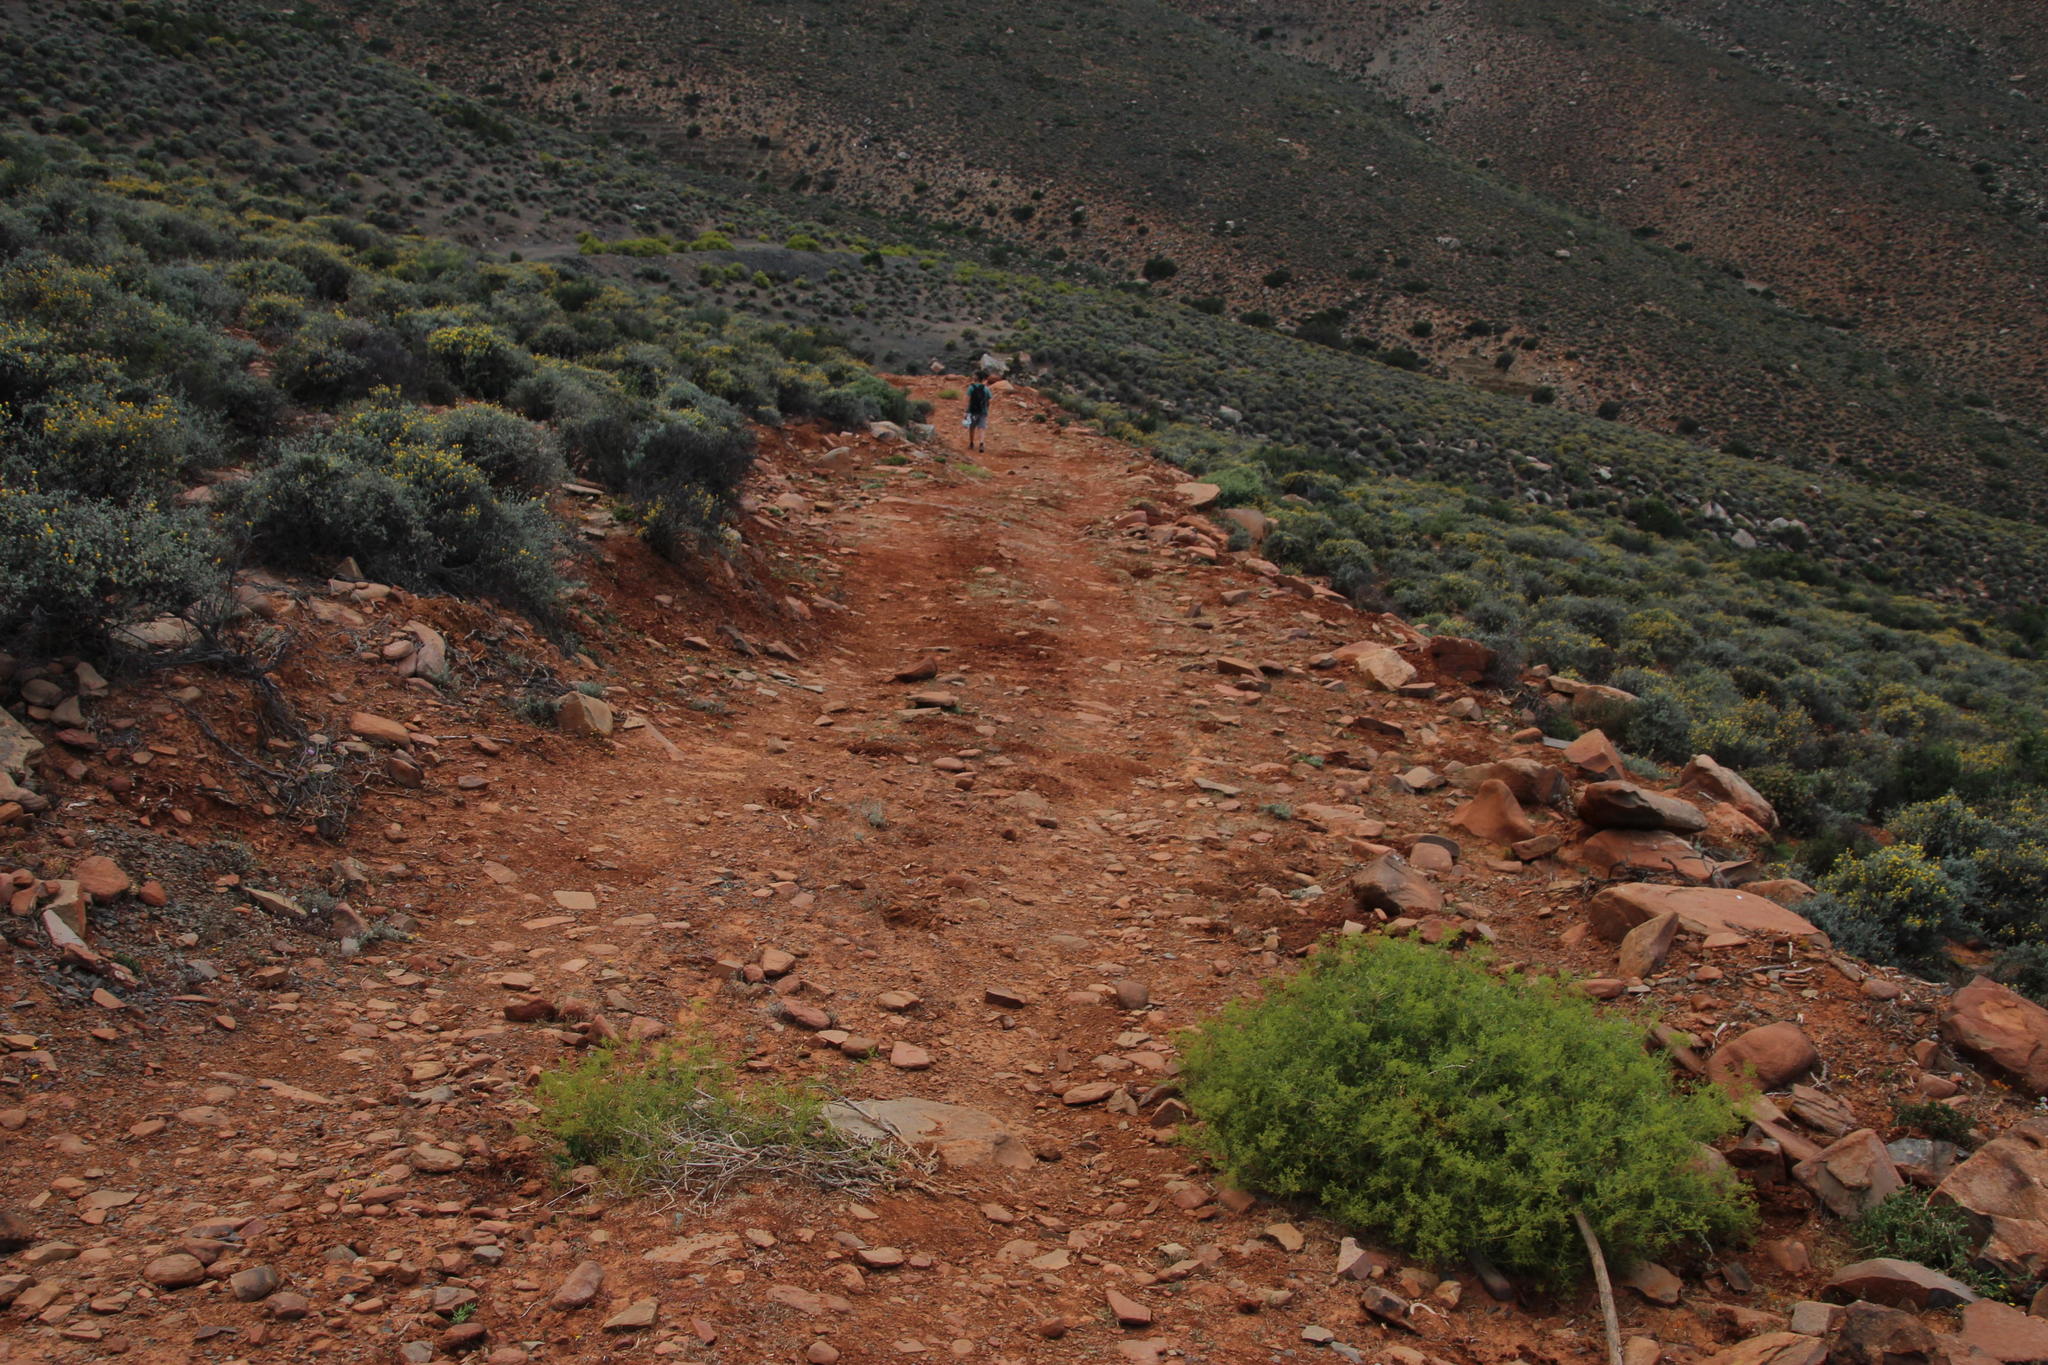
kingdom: Plantae
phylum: Tracheophyta
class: Magnoliopsida
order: Caryophyllales
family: Aizoaceae
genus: Aizoon
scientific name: Aizoon africanum
